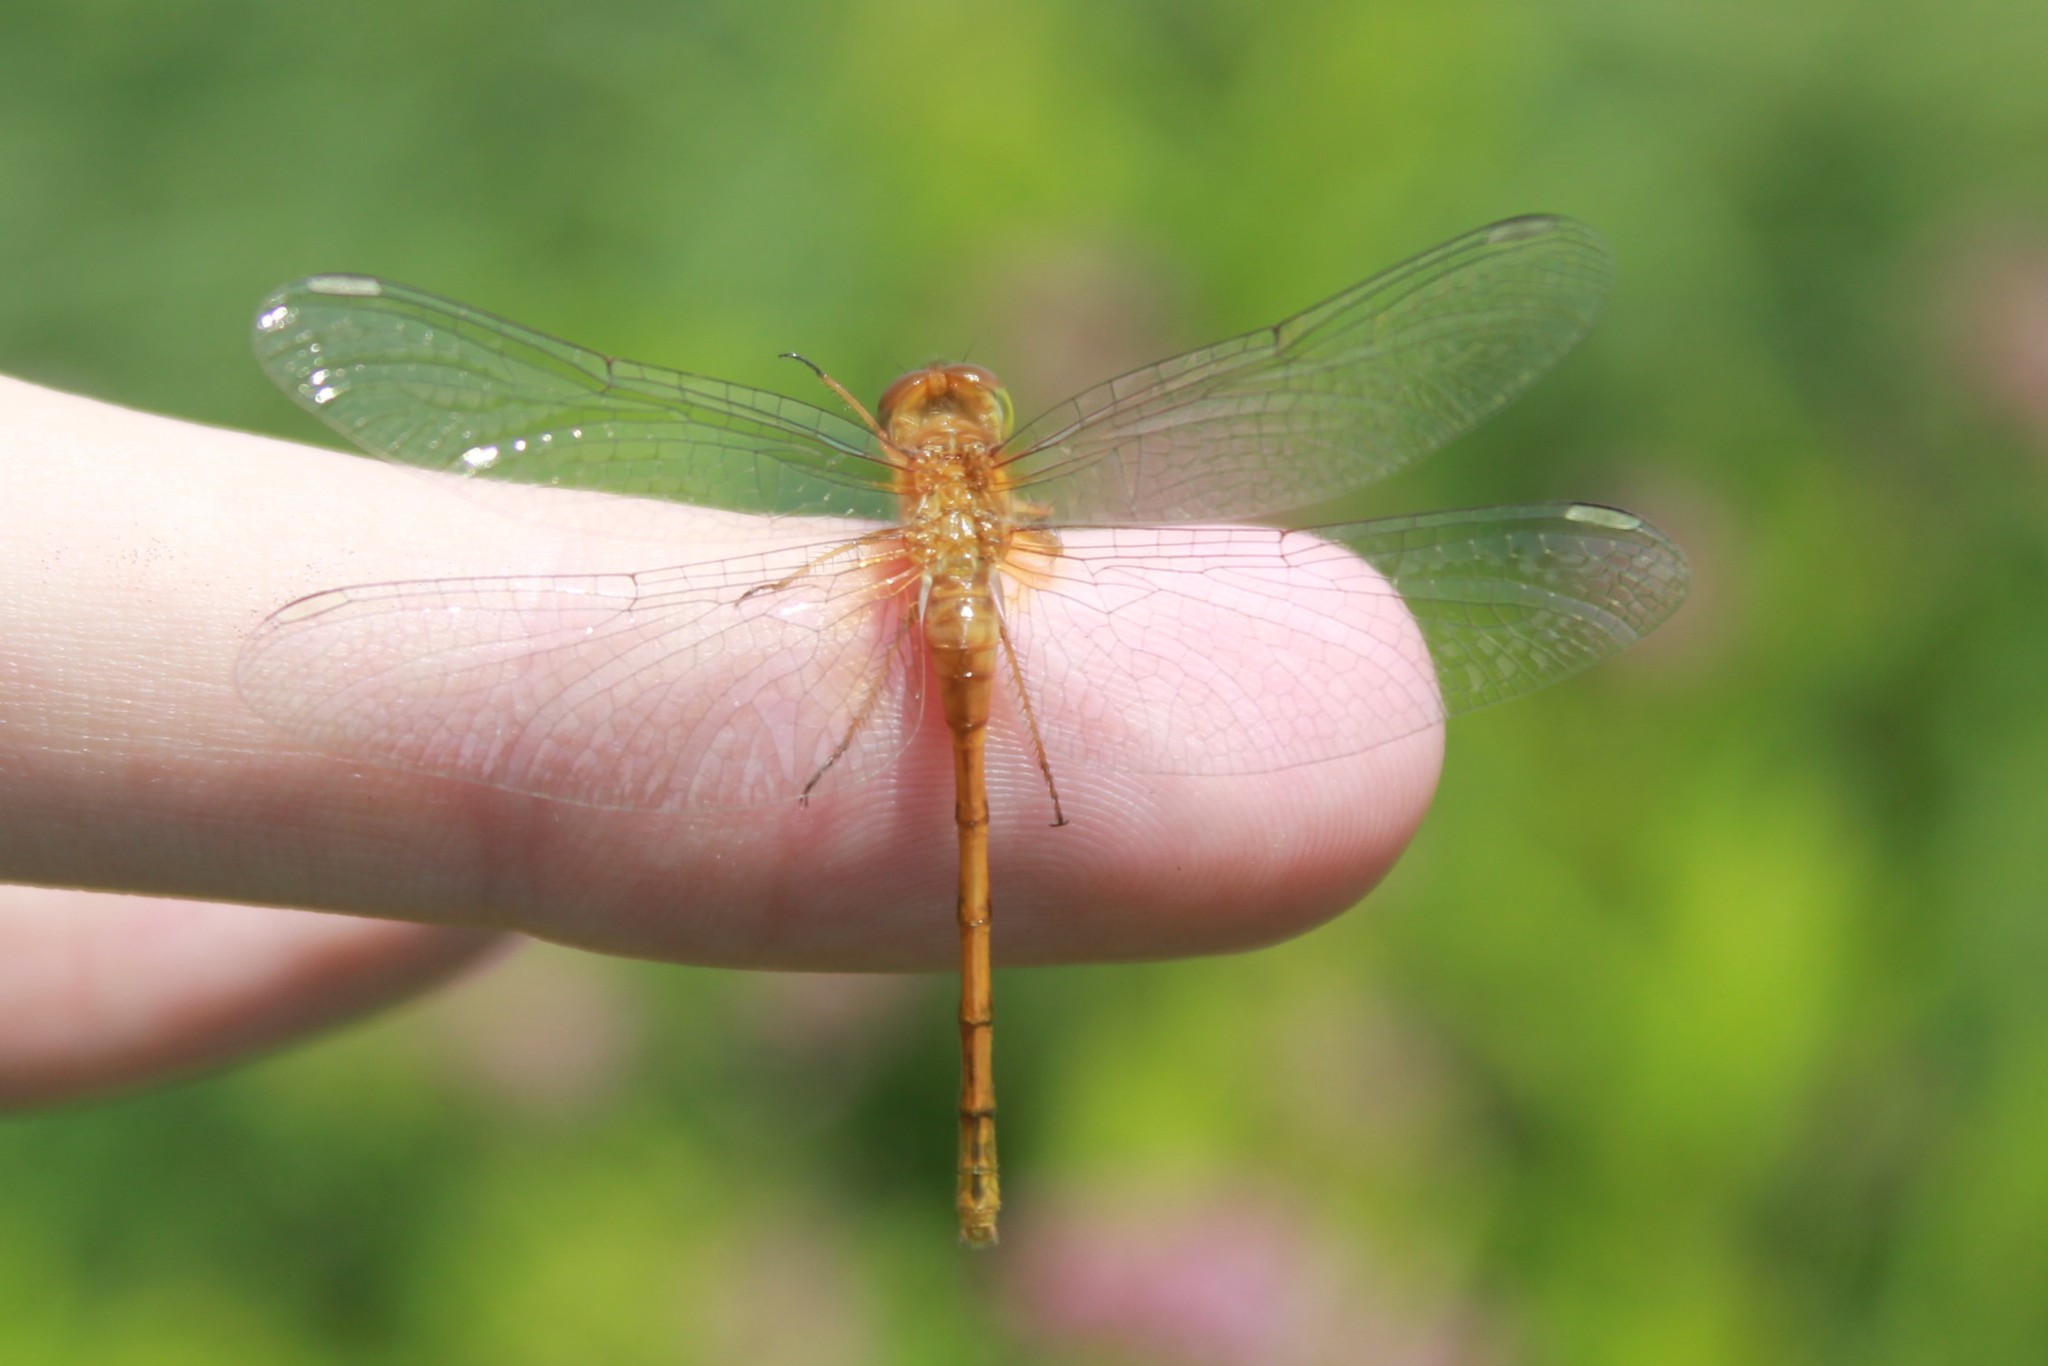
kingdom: Animalia
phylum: Arthropoda
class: Insecta
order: Odonata
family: Libellulidae
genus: Sympetrum
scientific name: Sympetrum vicinum
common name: Autumn meadowhawk
